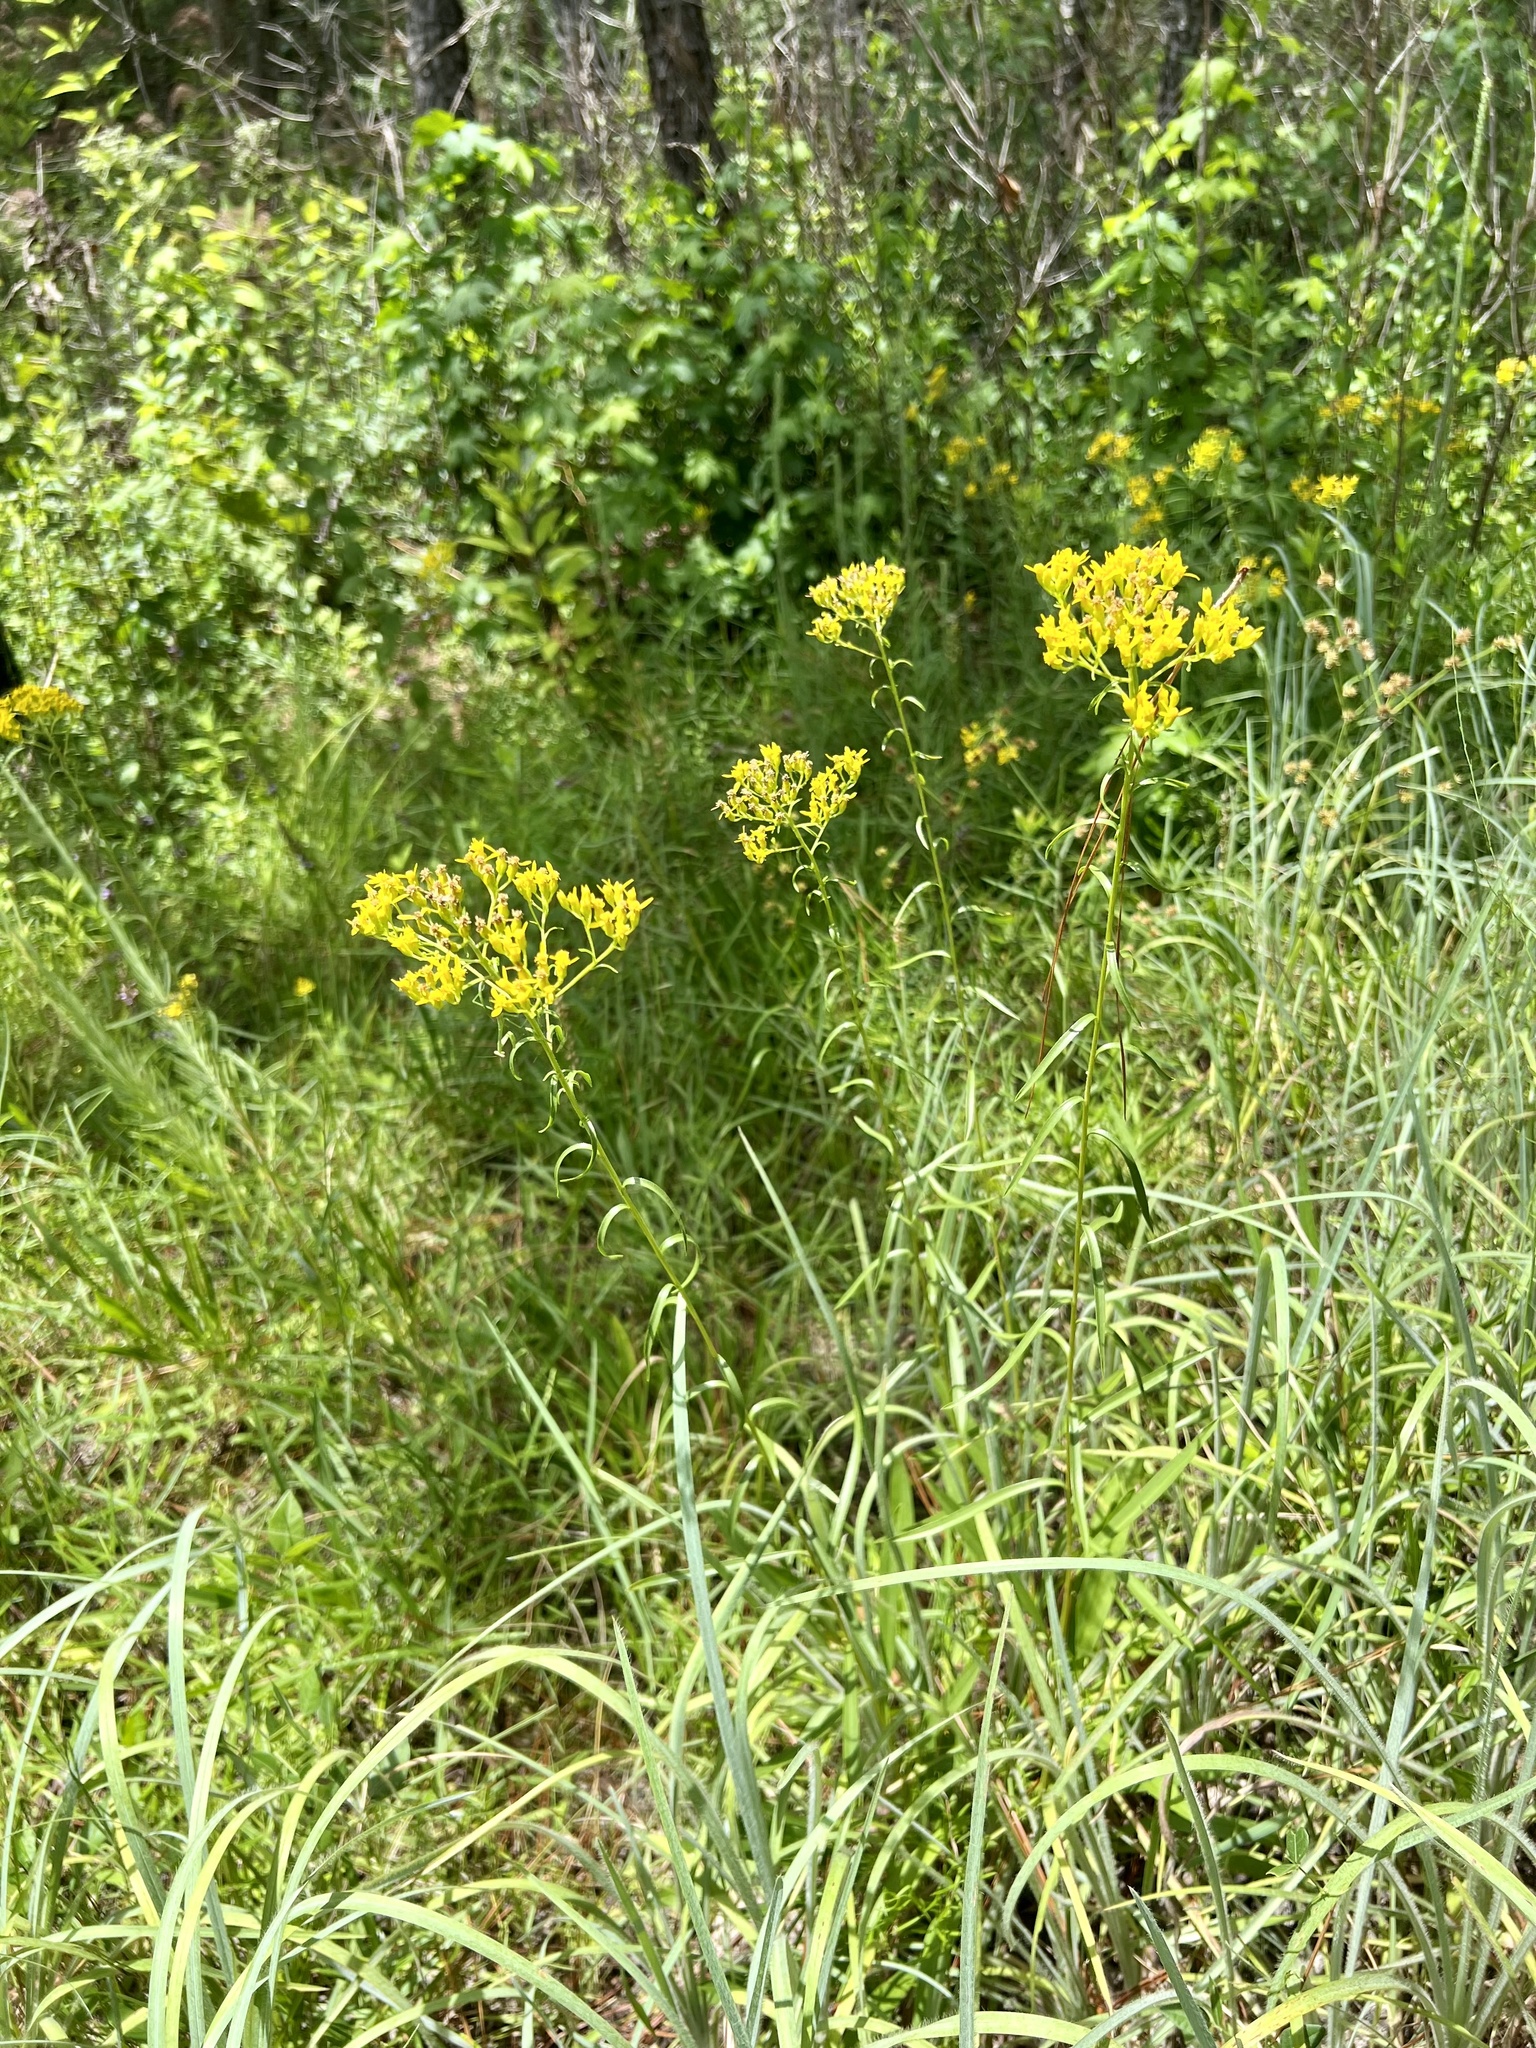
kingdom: Plantae
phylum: Tracheophyta
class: Magnoliopsida
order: Asterales
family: Asteraceae
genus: Solidago
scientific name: Solidago nitida
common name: Shiny goldenrod
